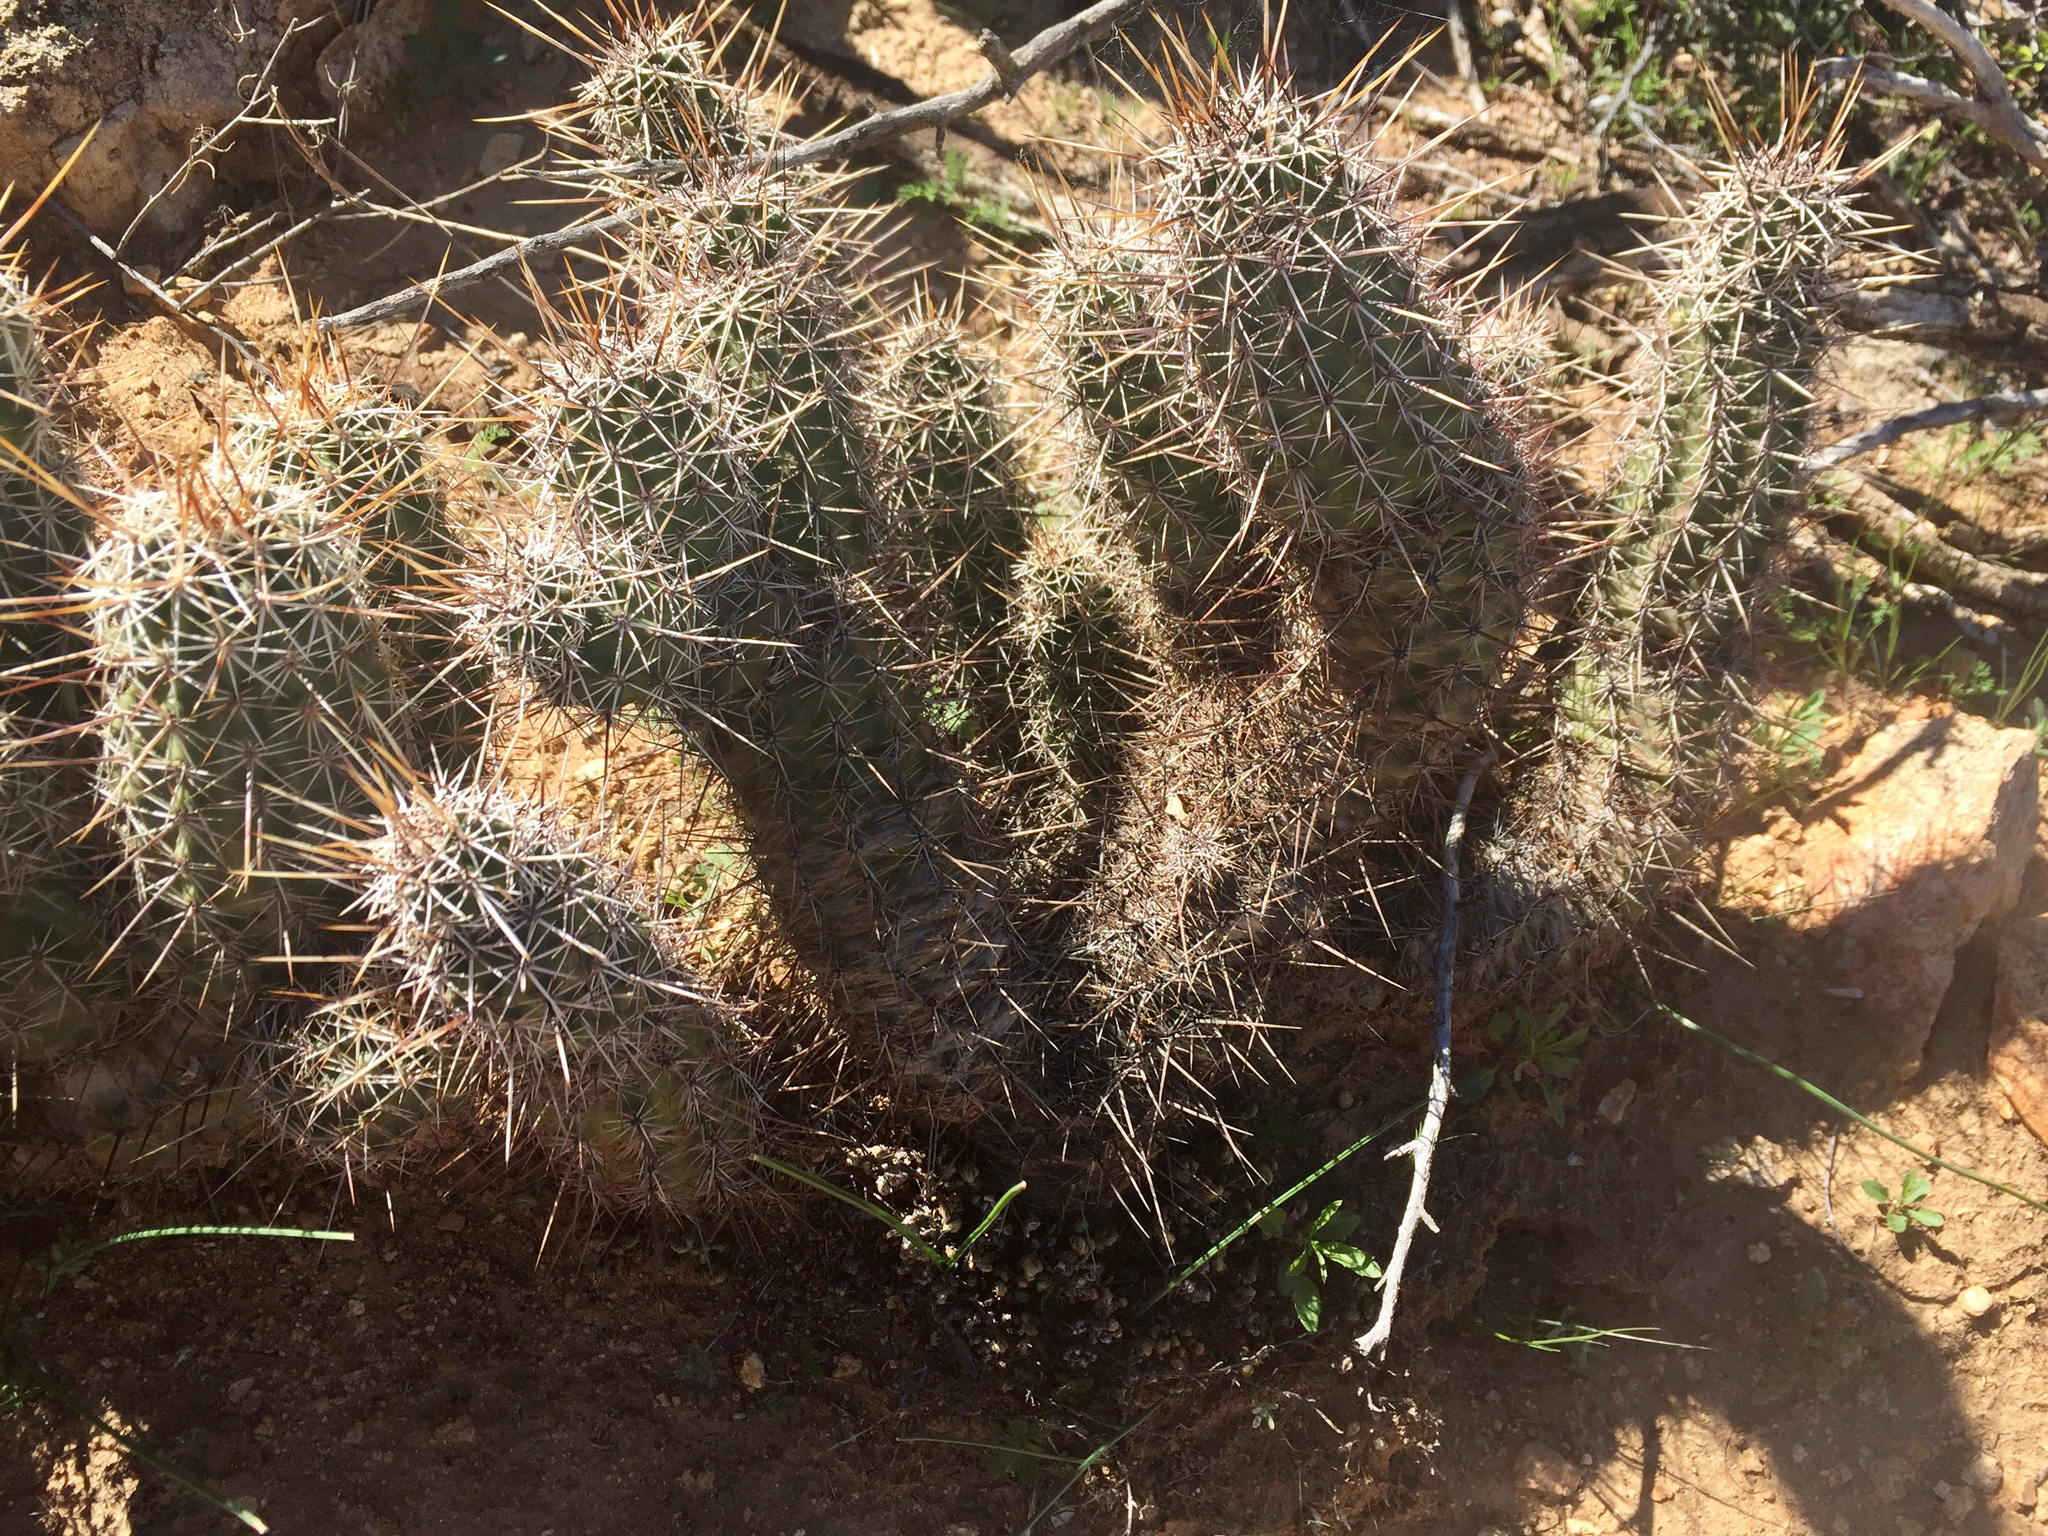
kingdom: Plantae
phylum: Tracheophyta
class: Magnoliopsida
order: Caryophyllales
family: Cactaceae
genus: Echinocereus
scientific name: Echinocereus fasciculatus
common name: Bundle hedgehog
